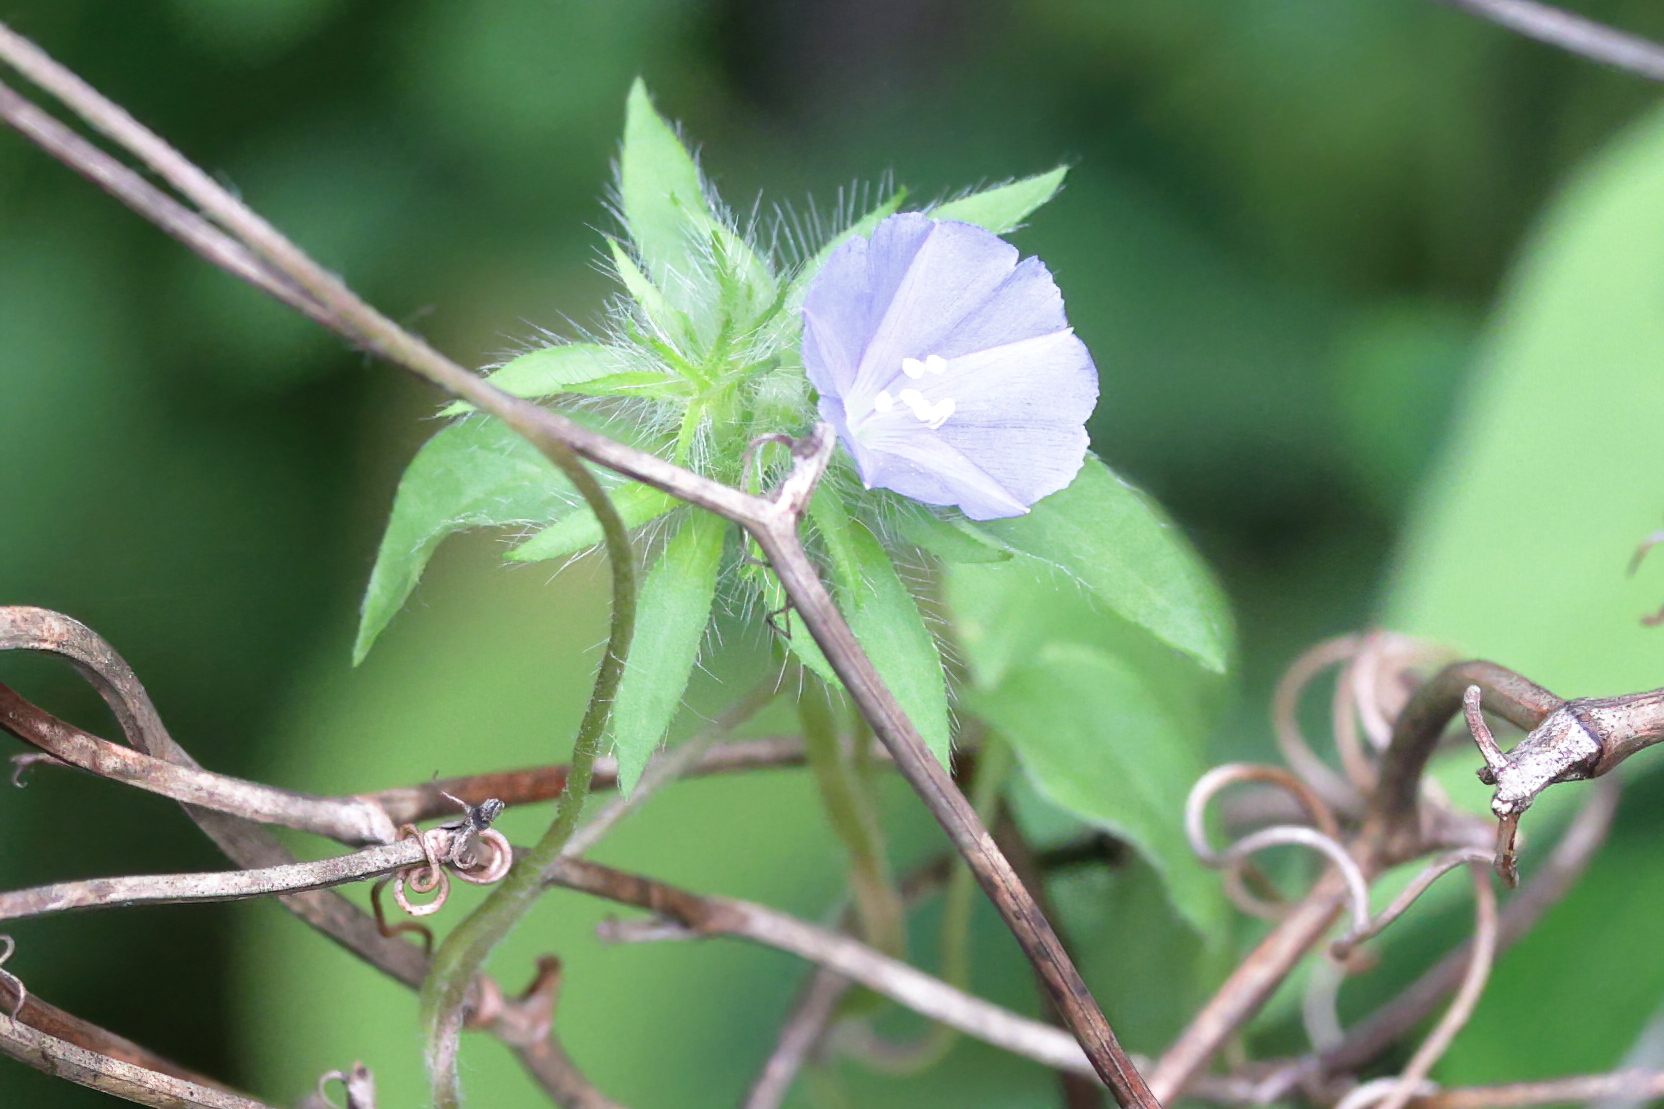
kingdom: Plantae
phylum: Tracheophyta
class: Magnoliopsida
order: Solanales
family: Convolvulaceae
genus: Jacquemontia
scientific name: Jacquemontia tamnifolia
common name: Hairy clustervine
